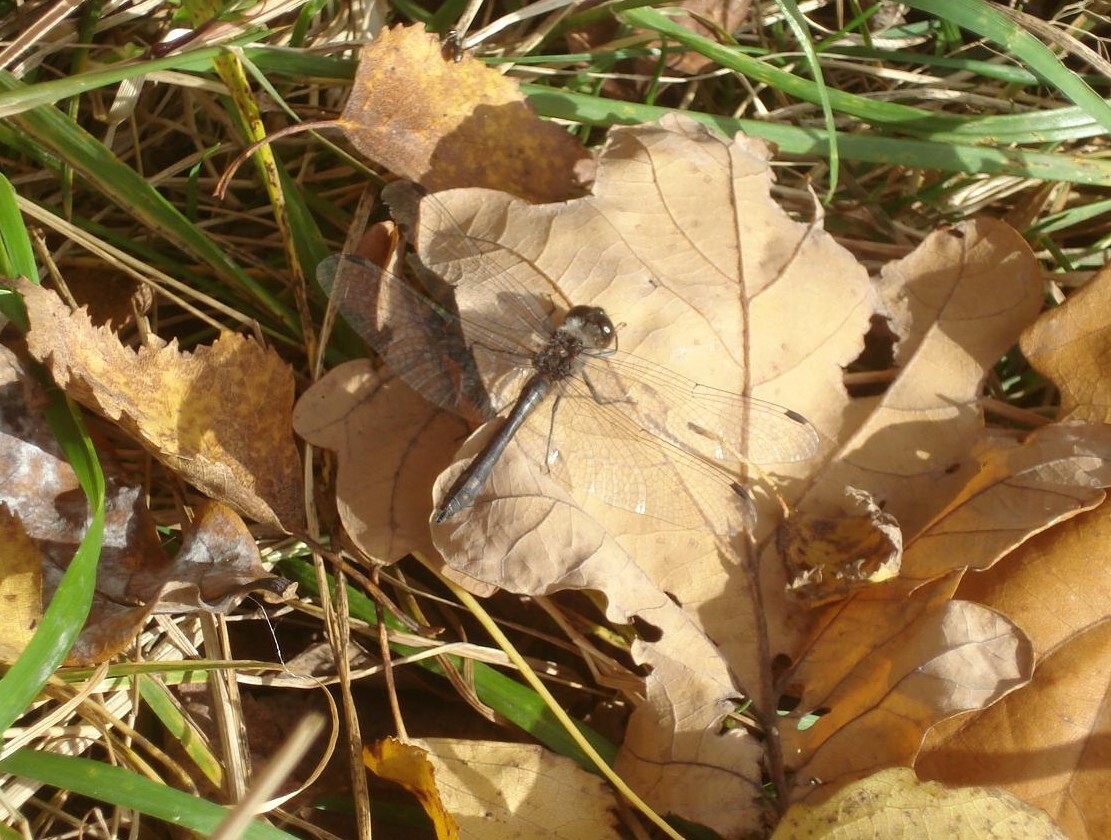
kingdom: Animalia
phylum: Arthropoda
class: Insecta
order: Odonata
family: Libellulidae
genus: Sympetrum
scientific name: Sympetrum danae
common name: Black darter
